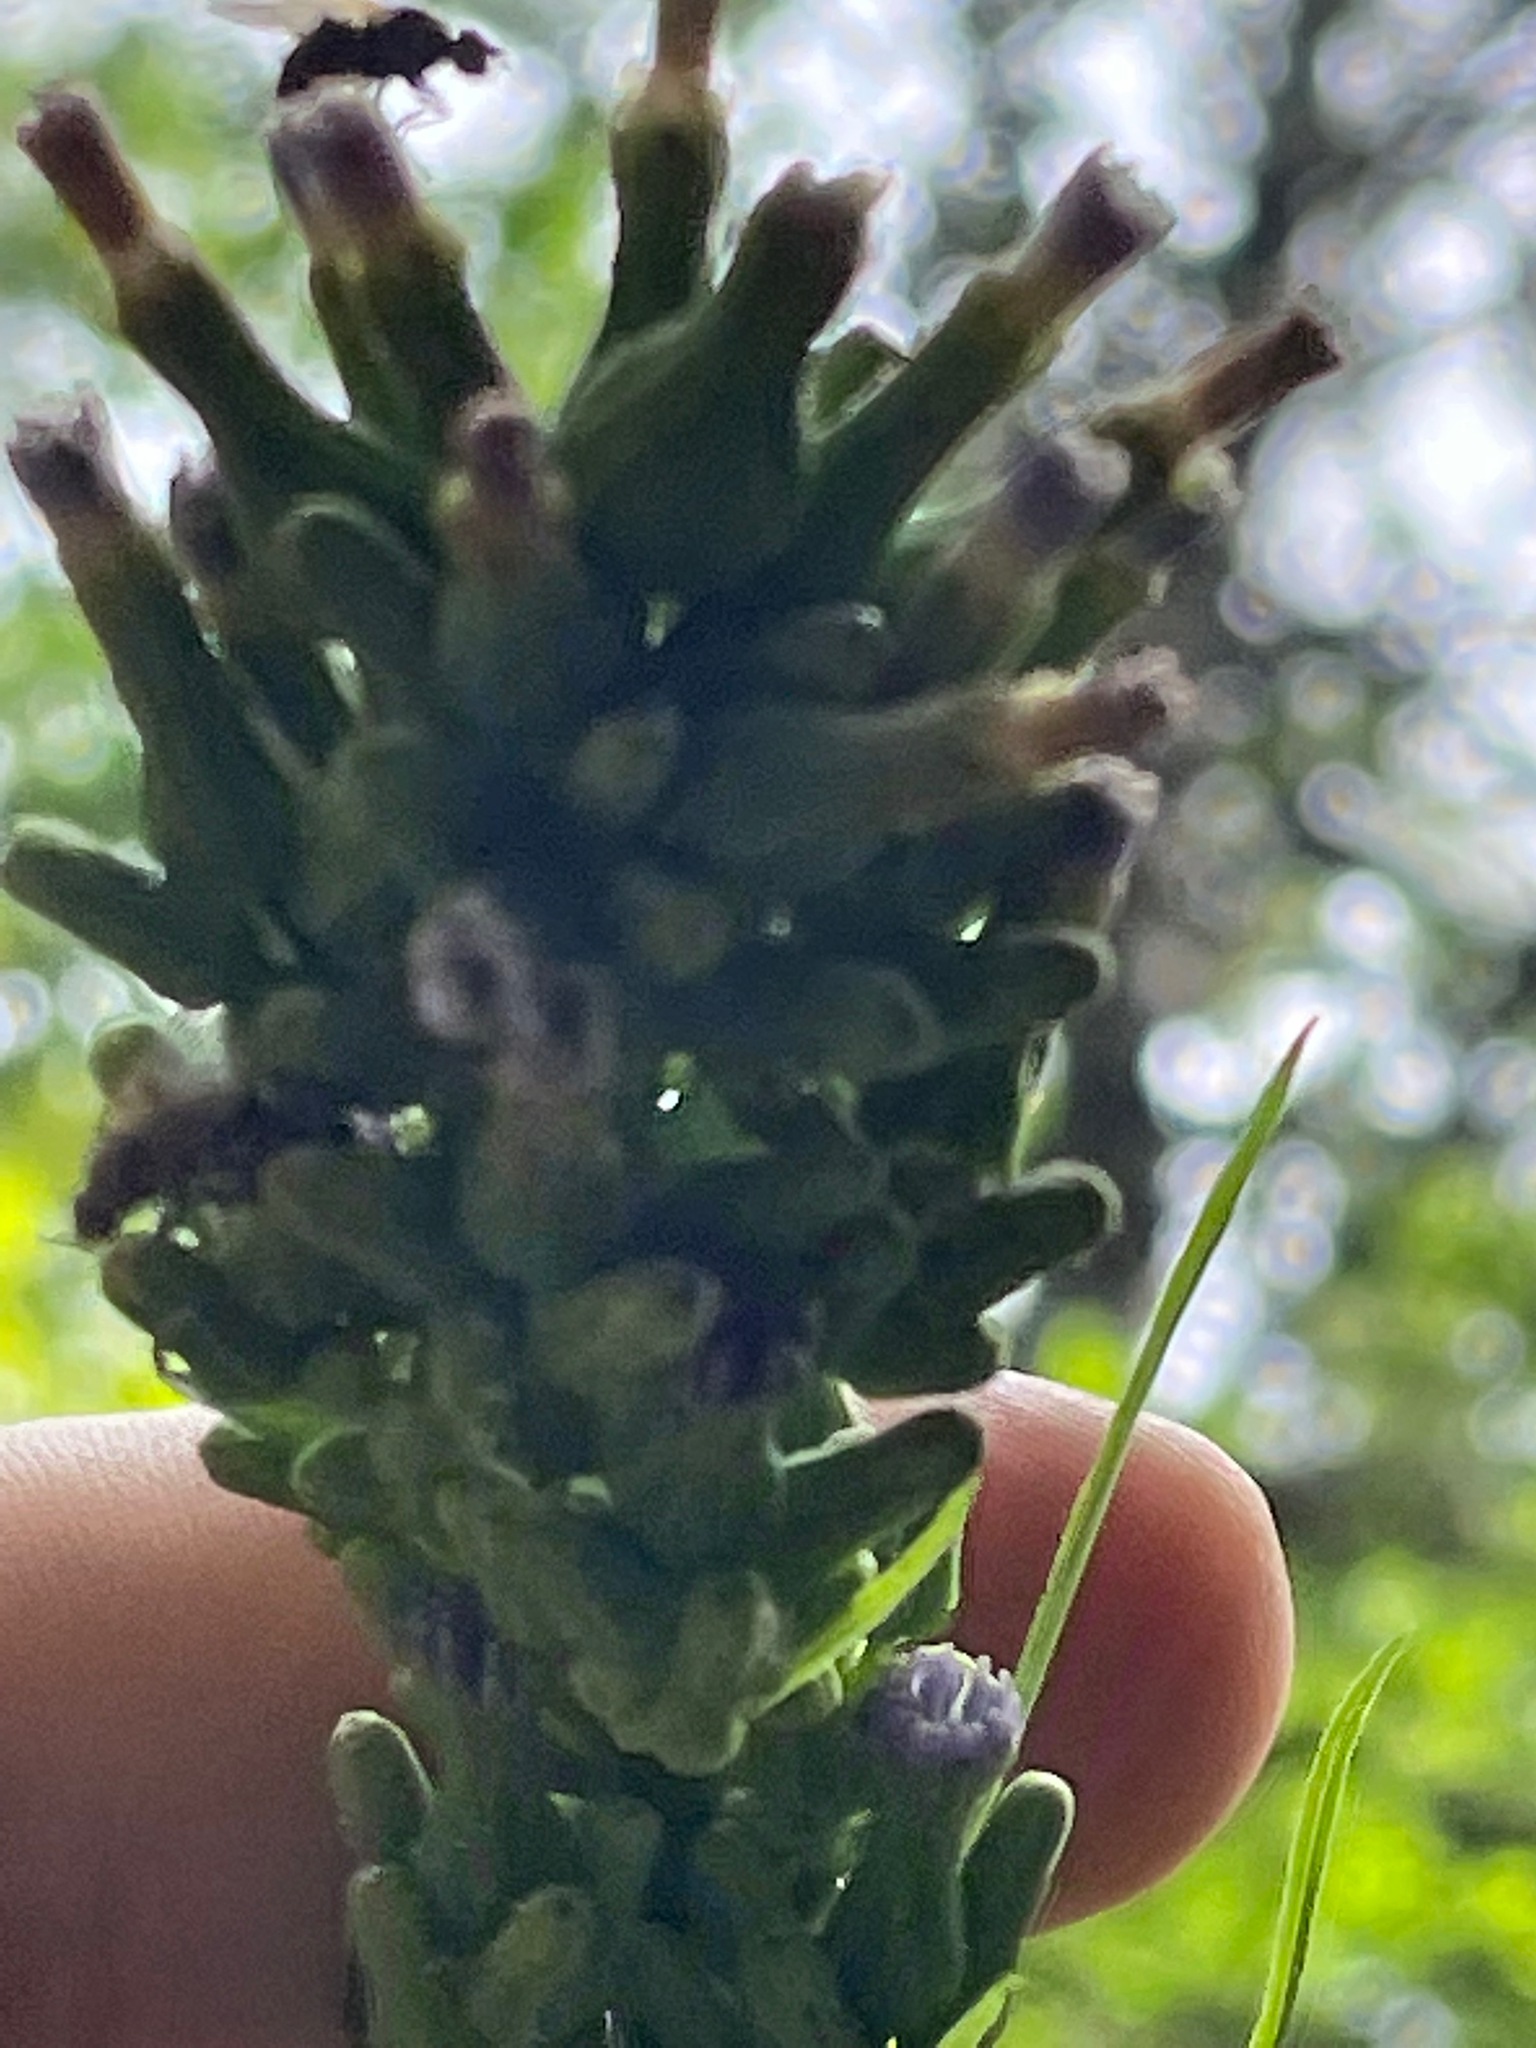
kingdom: Plantae
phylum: Tracheophyta
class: Magnoliopsida
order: Asterales
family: Asteraceae
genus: Lactuca
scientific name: Lactuca biennis
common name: Blue wood lettuce
